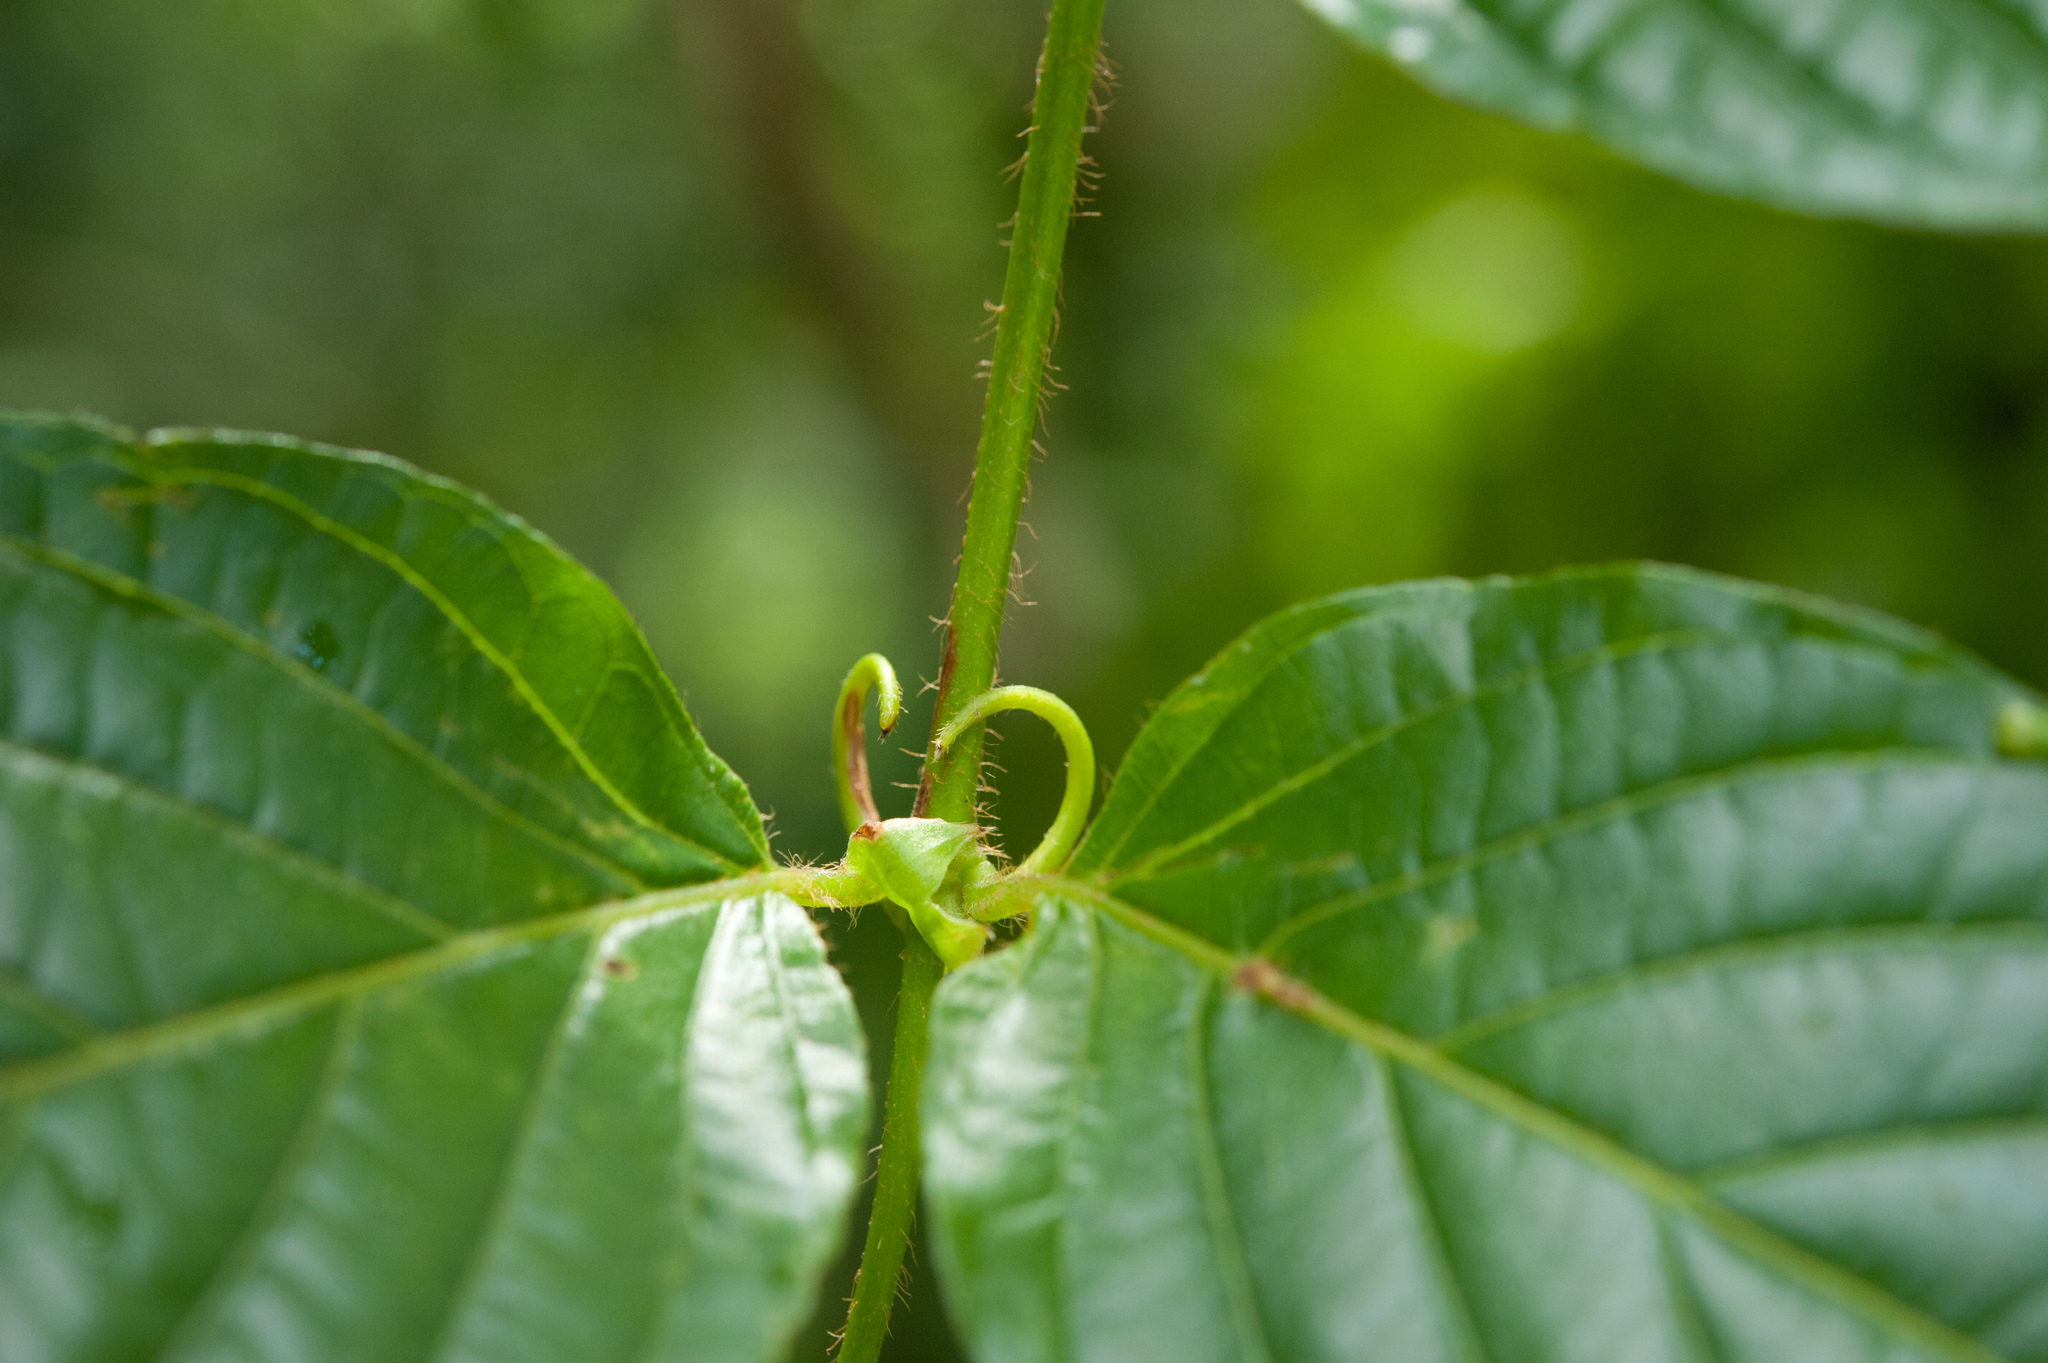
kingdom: Plantae
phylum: Tracheophyta
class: Magnoliopsida
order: Gentianales
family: Rubiaceae
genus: Uncaria
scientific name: Uncaria lanosa
